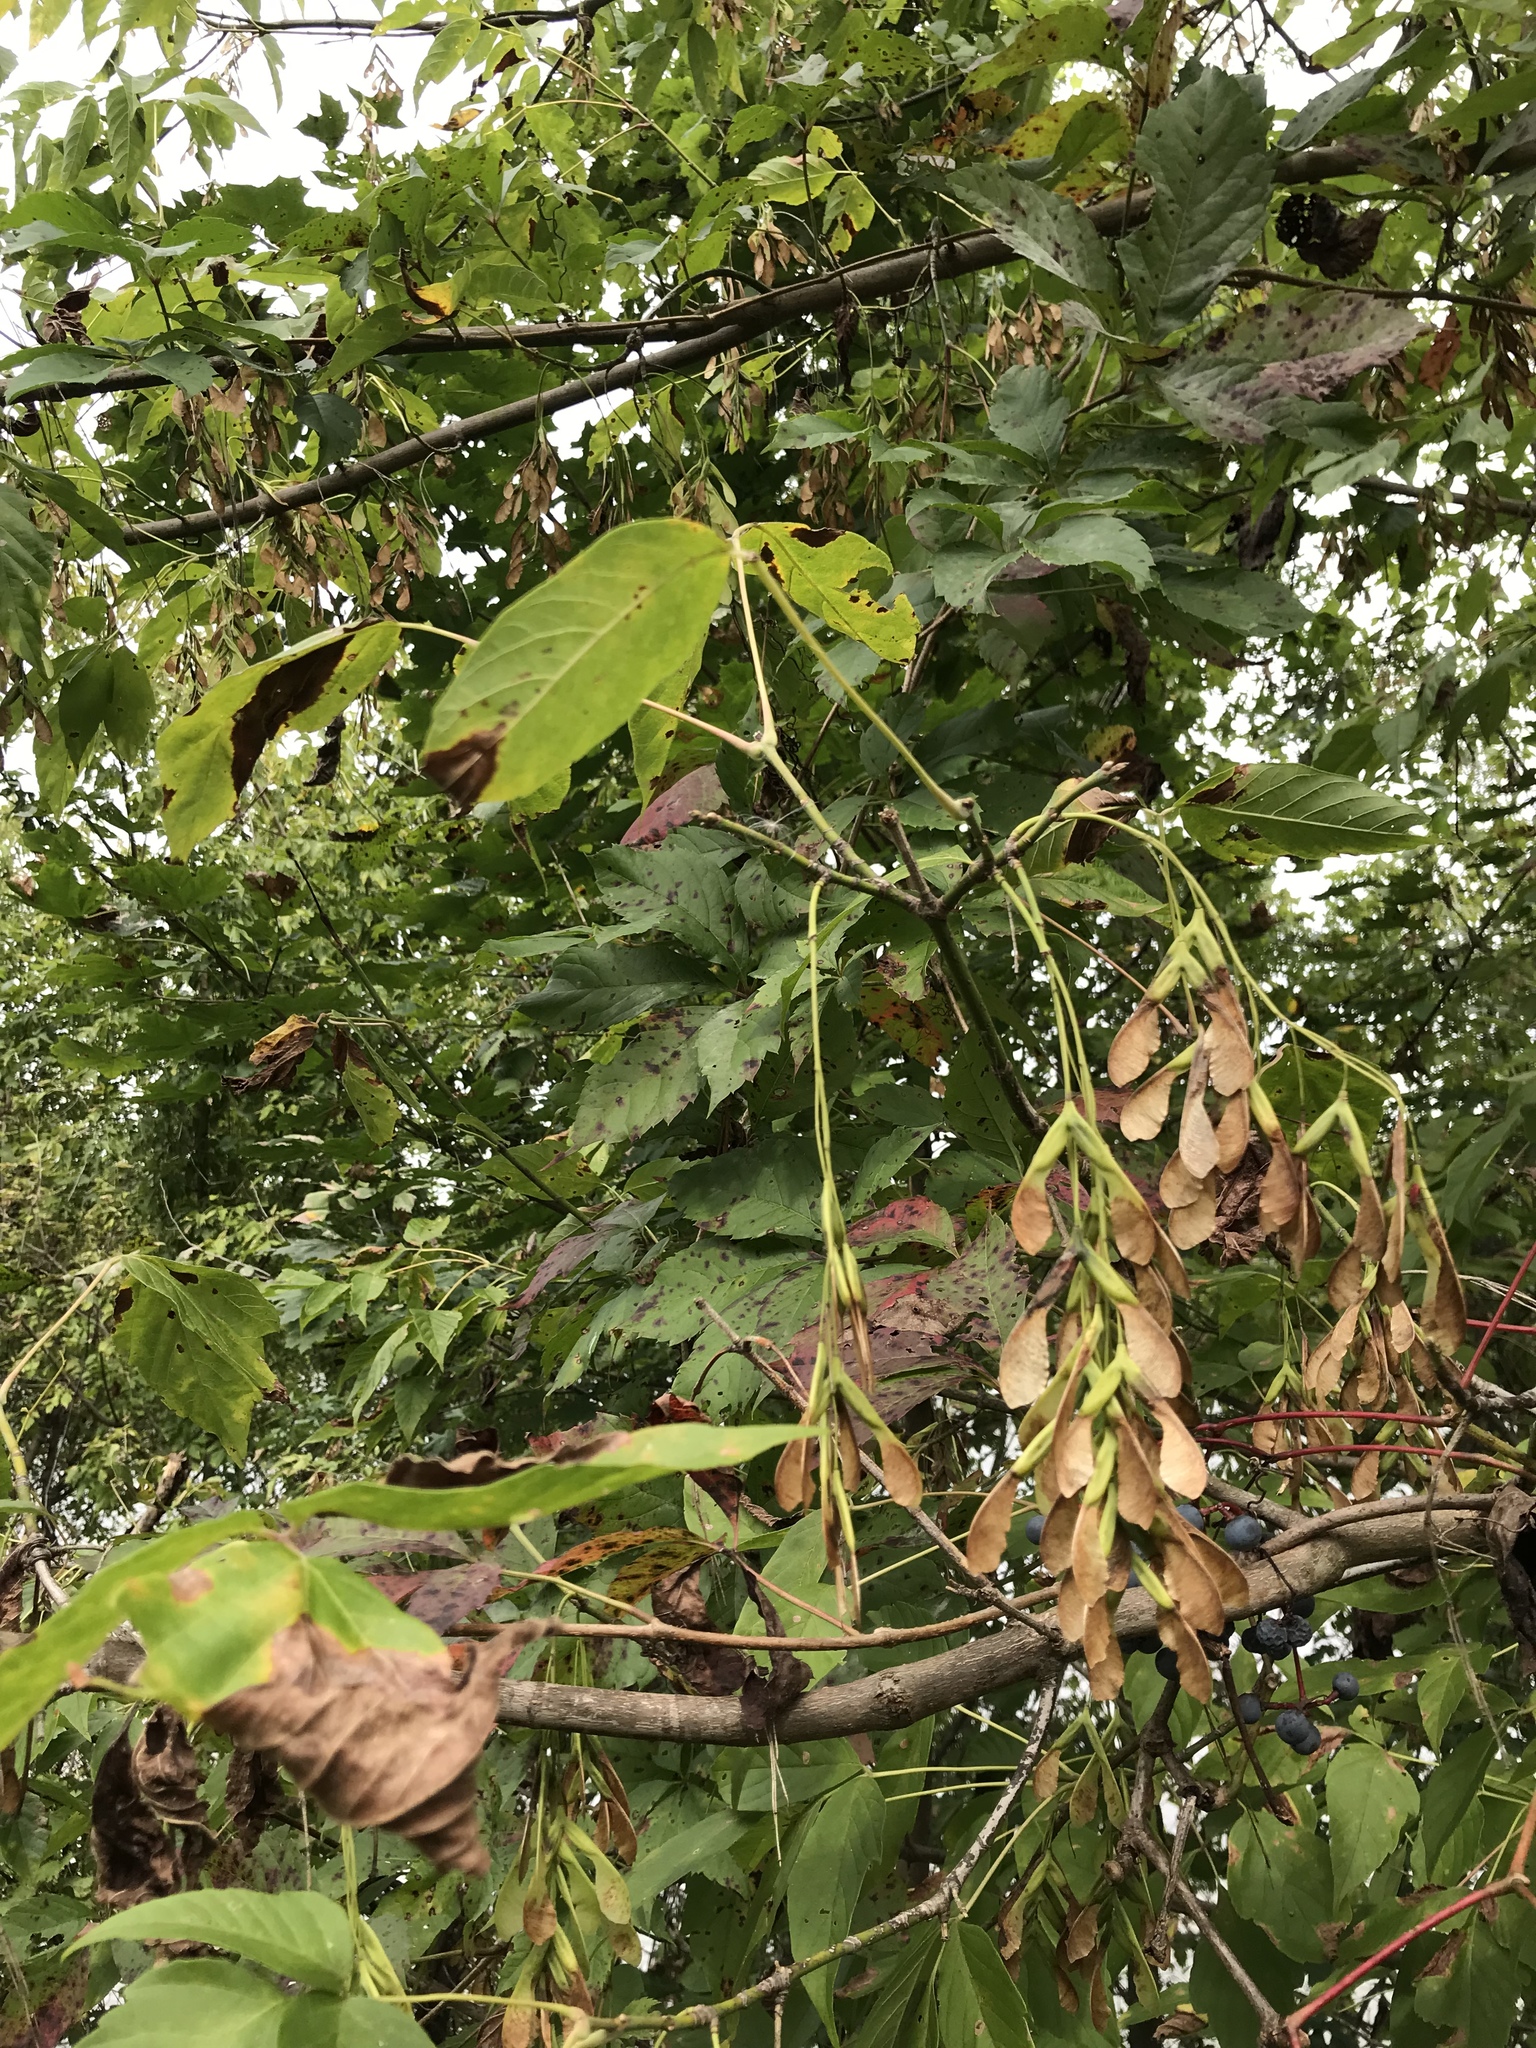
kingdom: Plantae
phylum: Tracheophyta
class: Magnoliopsida
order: Sapindales
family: Sapindaceae
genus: Acer
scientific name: Acer negundo
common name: Ashleaf maple
